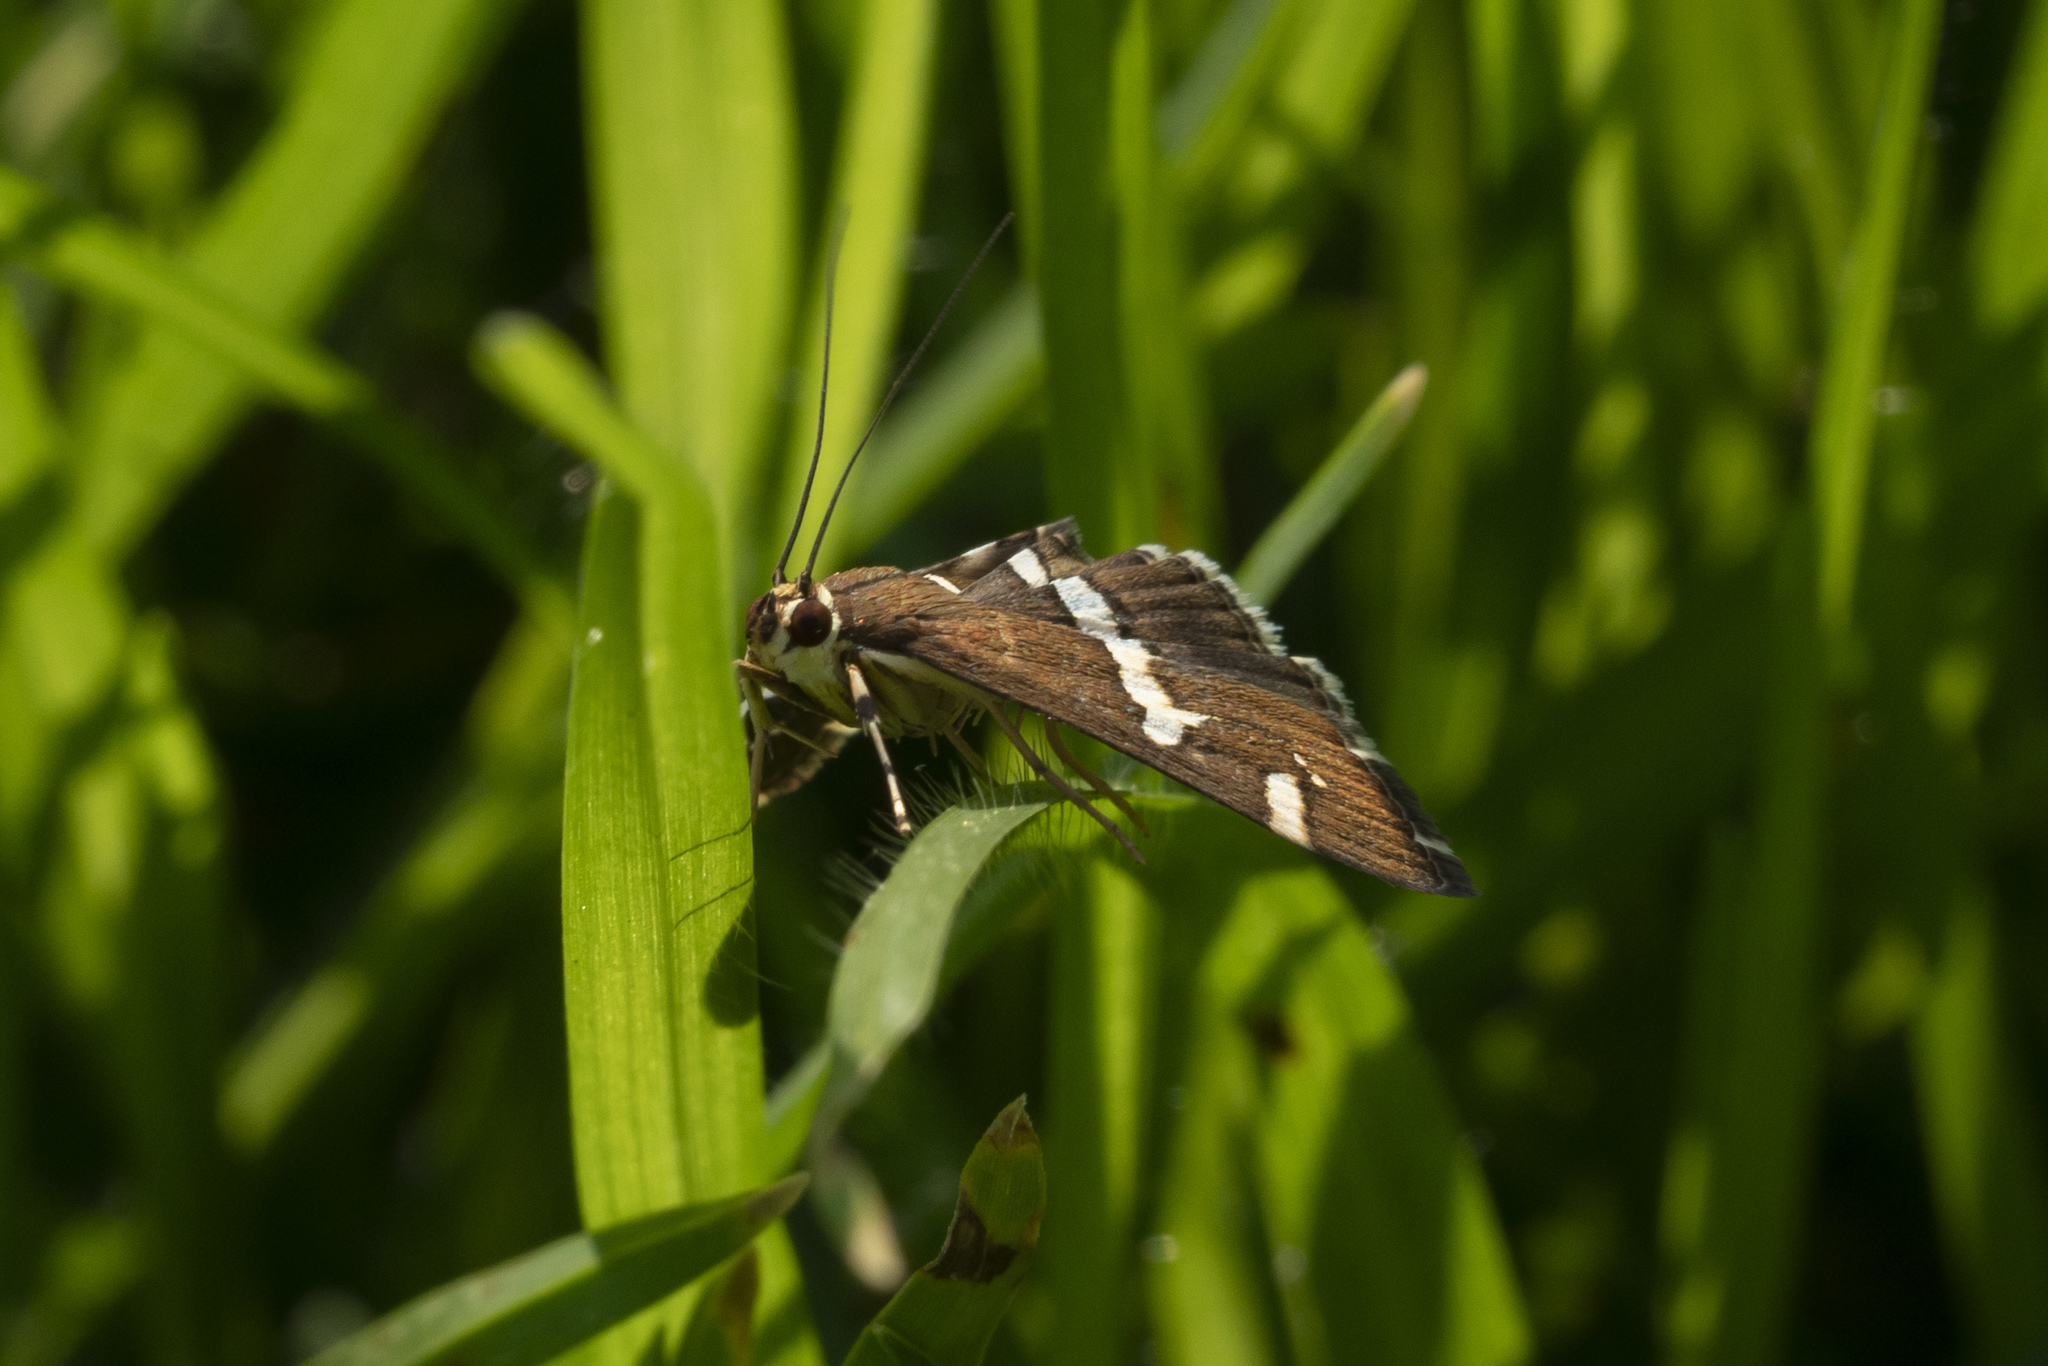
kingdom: Animalia
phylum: Arthropoda
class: Insecta
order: Lepidoptera
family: Crambidae
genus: Spoladea
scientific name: Spoladea recurvalis
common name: Beet webworm moth
